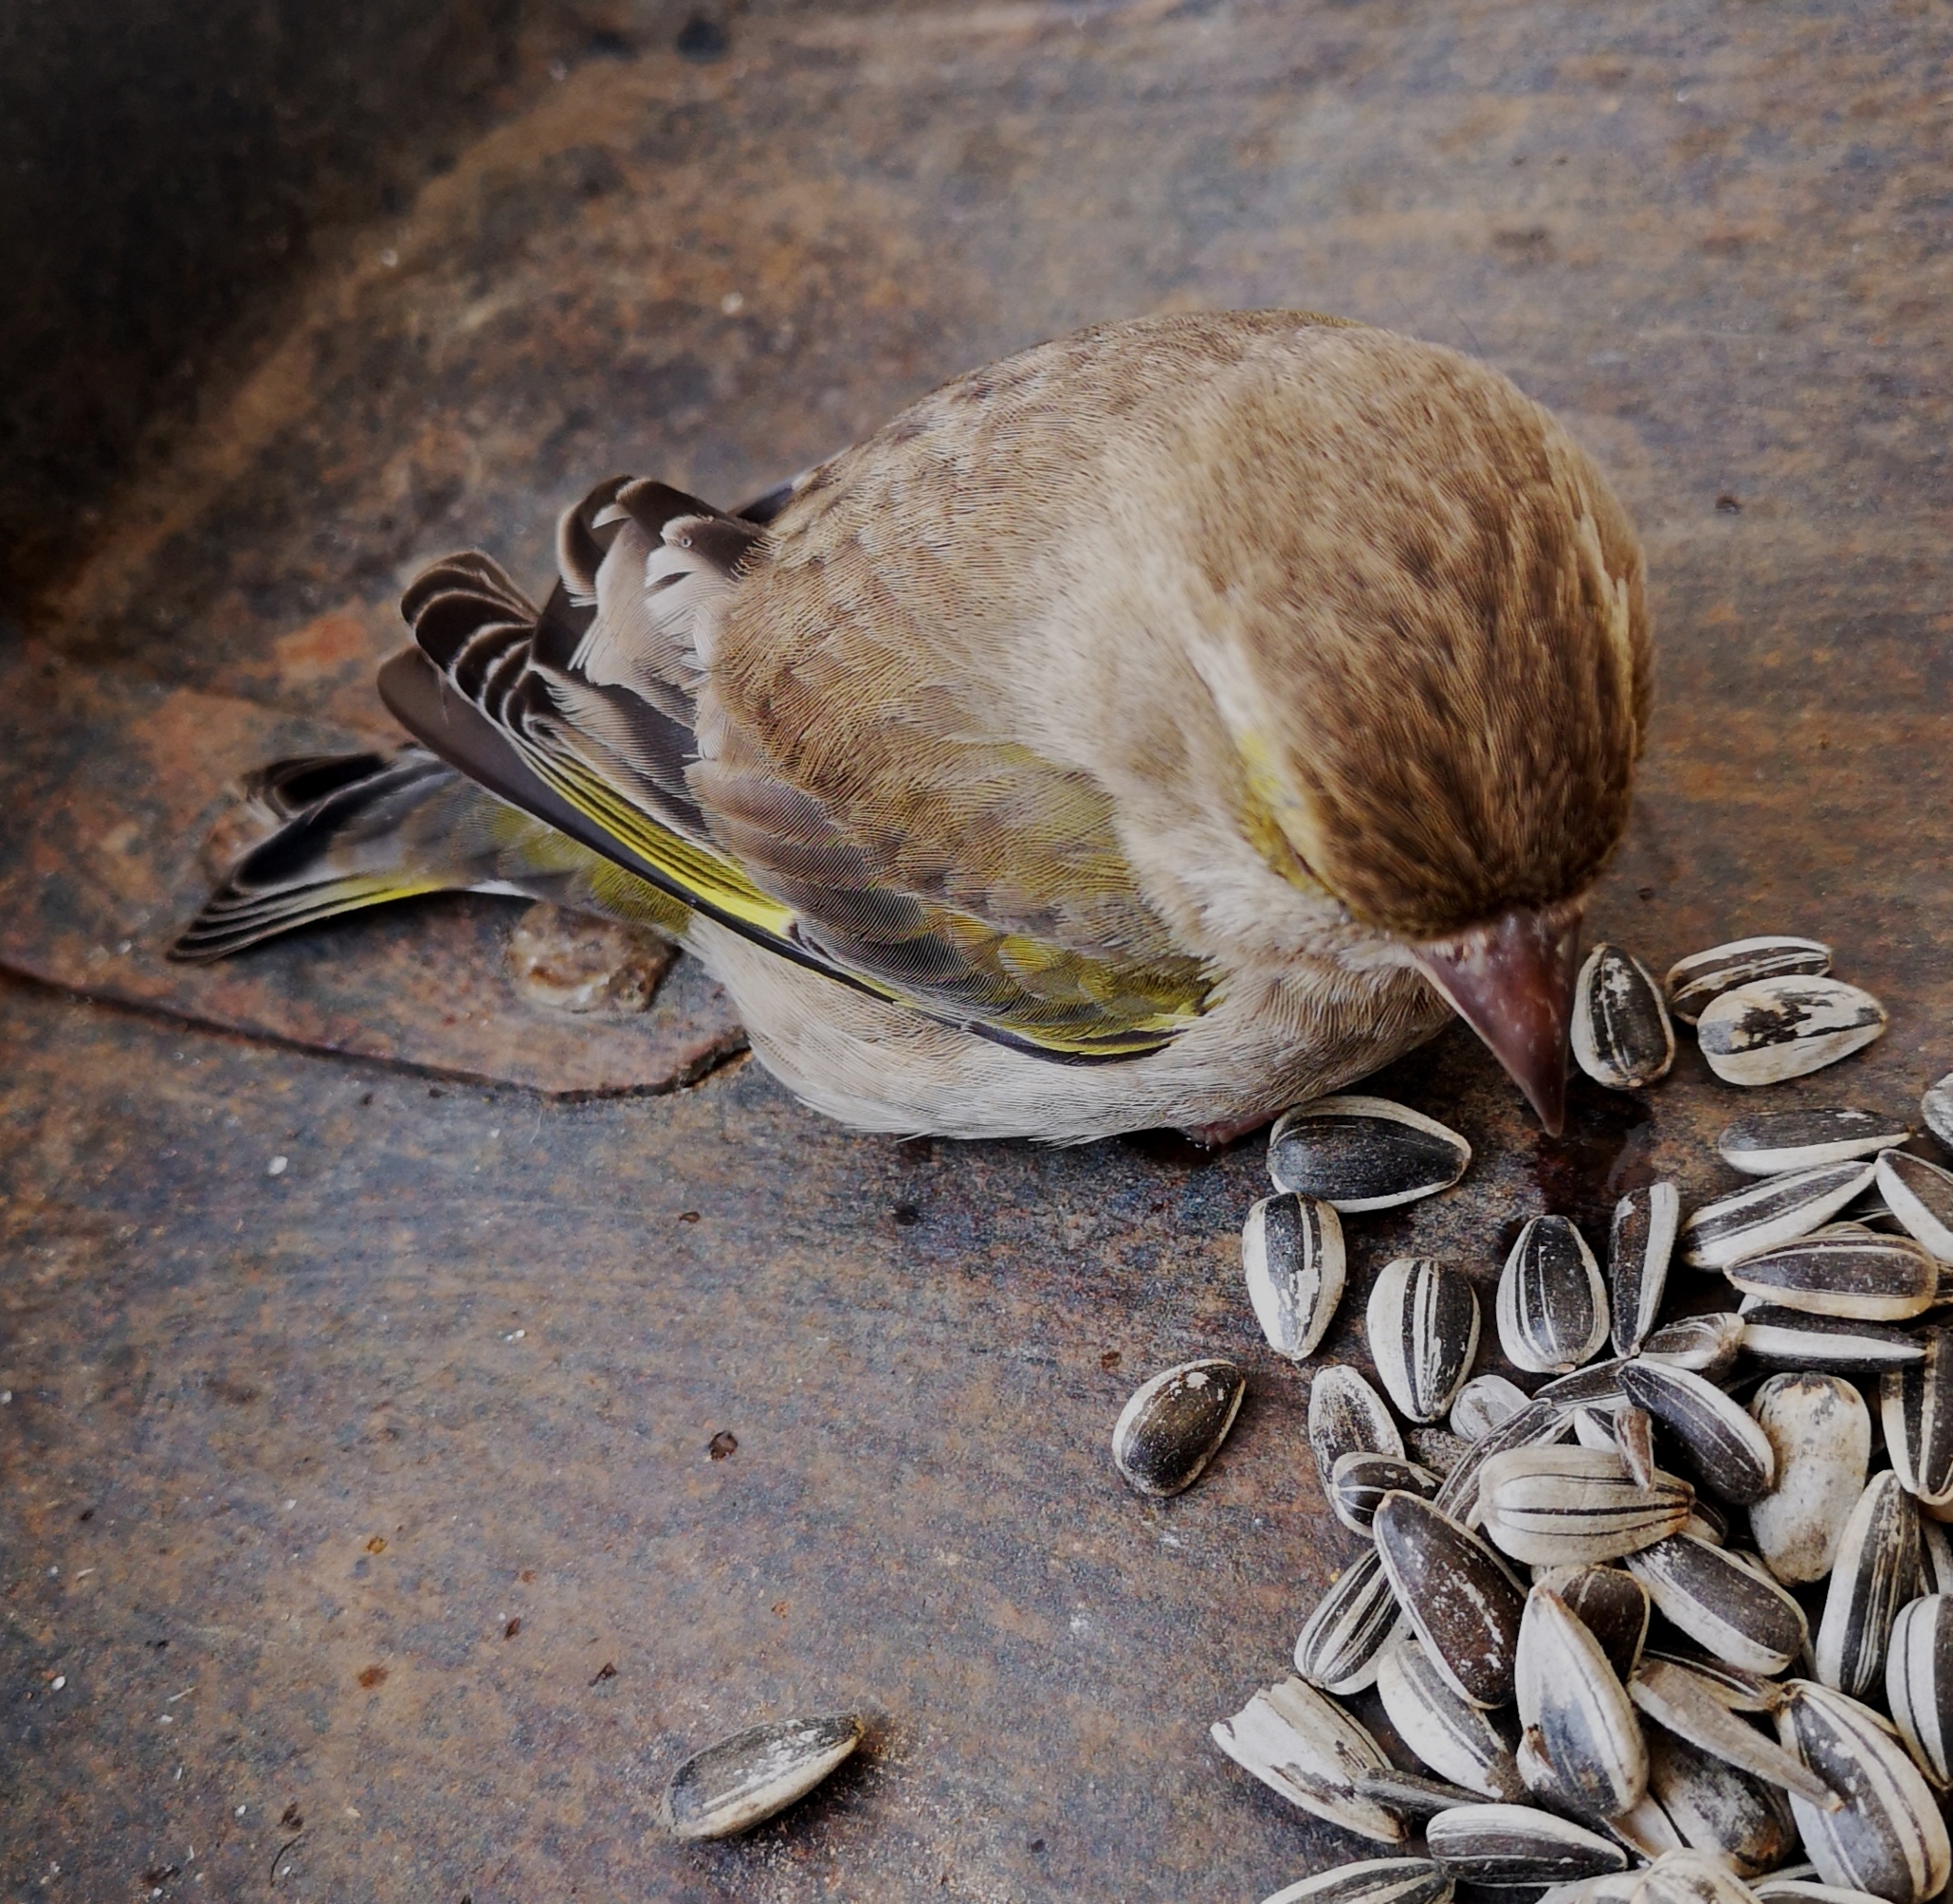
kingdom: Plantae
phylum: Tracheophyta
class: Liliopsida
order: Poales
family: Poaceae
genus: Chloris
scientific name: Chloris chloris
